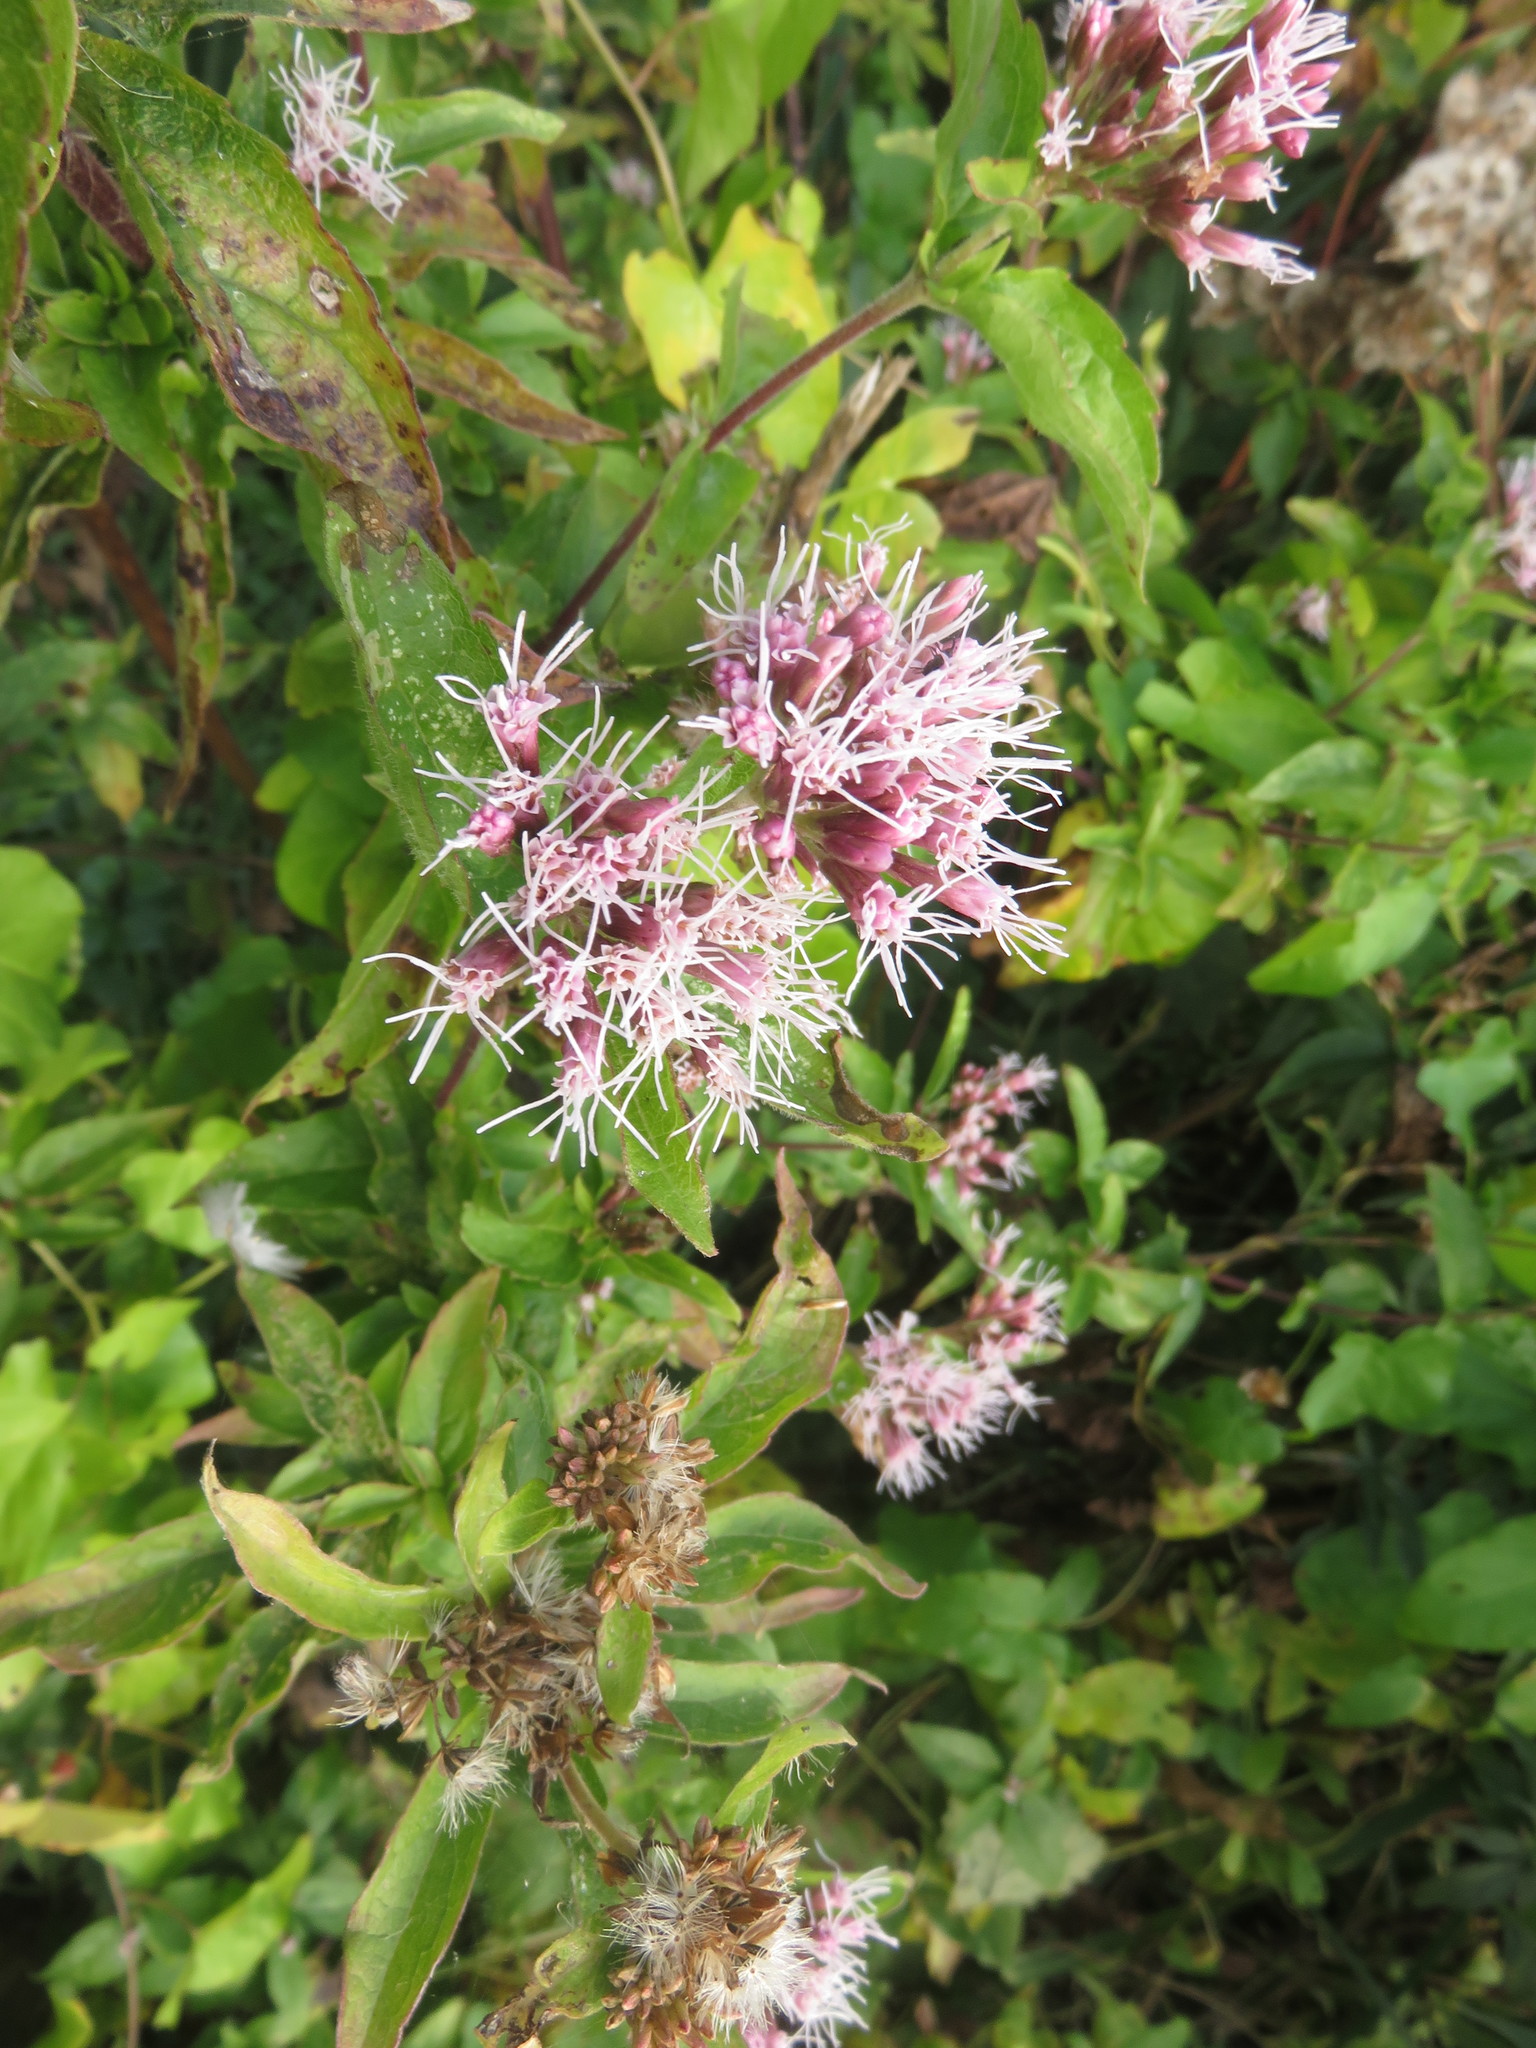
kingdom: Plantae
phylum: Tracheophyta
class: Magnoliopsida
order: Asterales
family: Asteraceae
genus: Eupatorium
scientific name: Eupatorium cannabinum
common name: Hemp-agrimony
